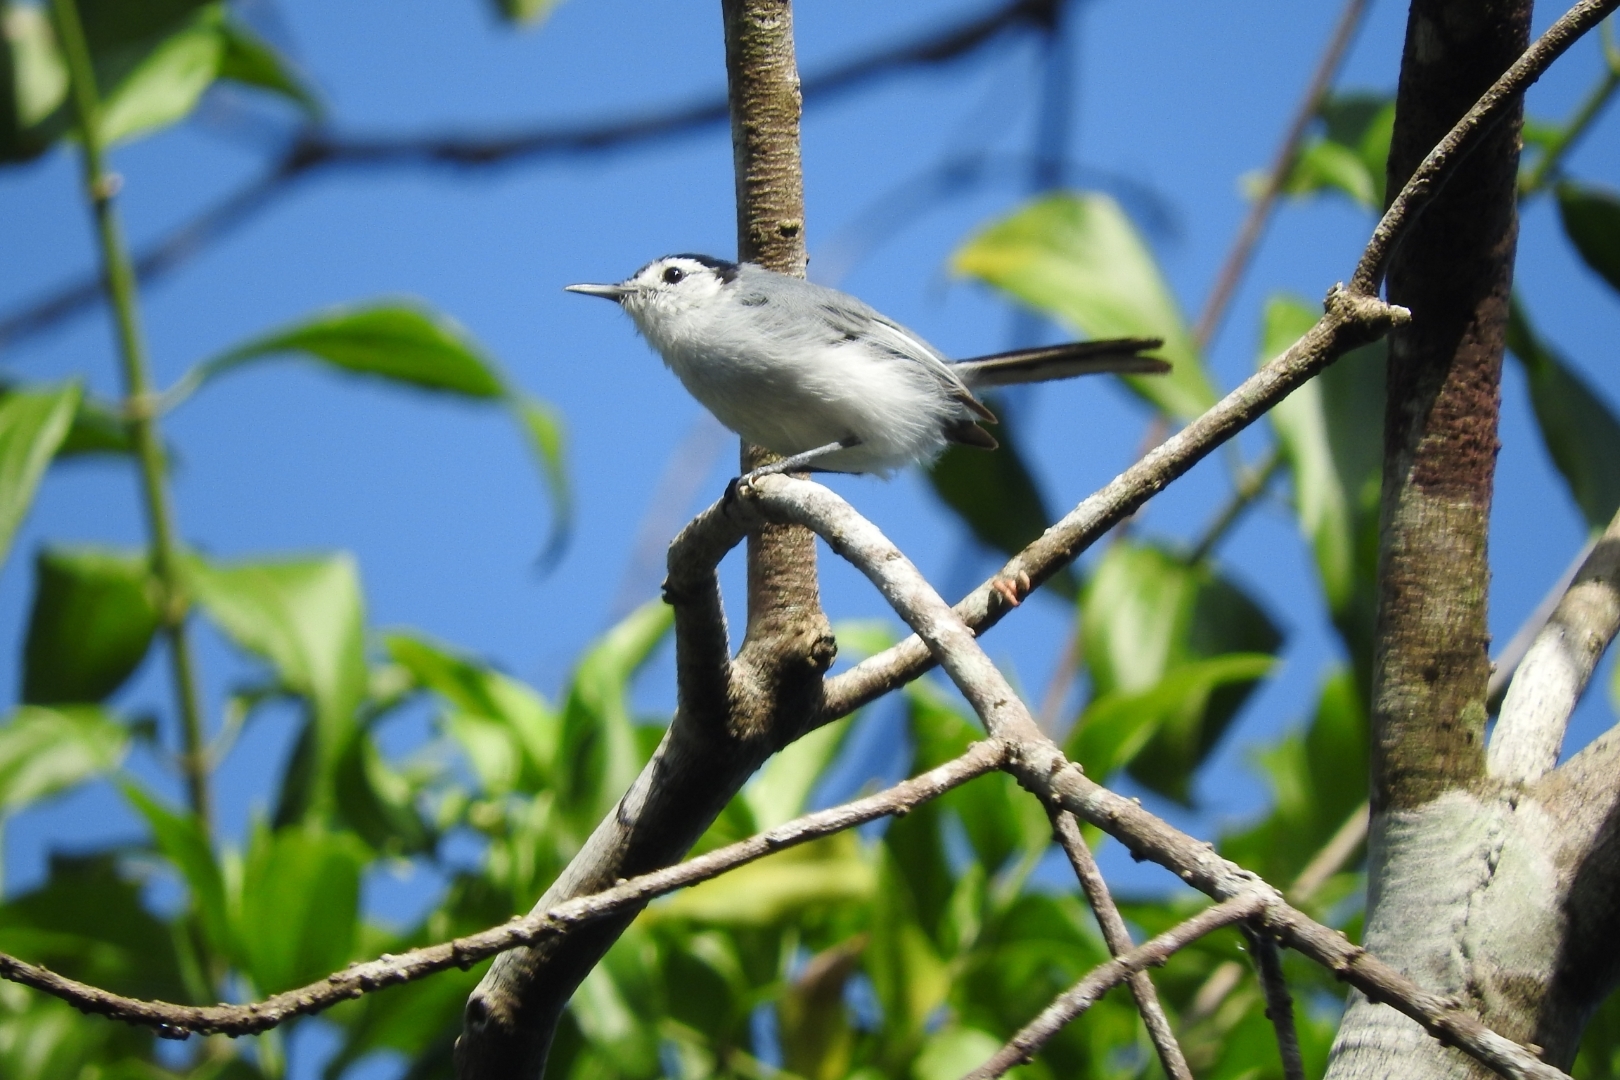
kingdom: Animalia
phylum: Chordata
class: Aves
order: Passeriformes
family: Polioptilidae
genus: Polioptila
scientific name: Polioptila plumbea
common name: Tropical gnatcatcher
